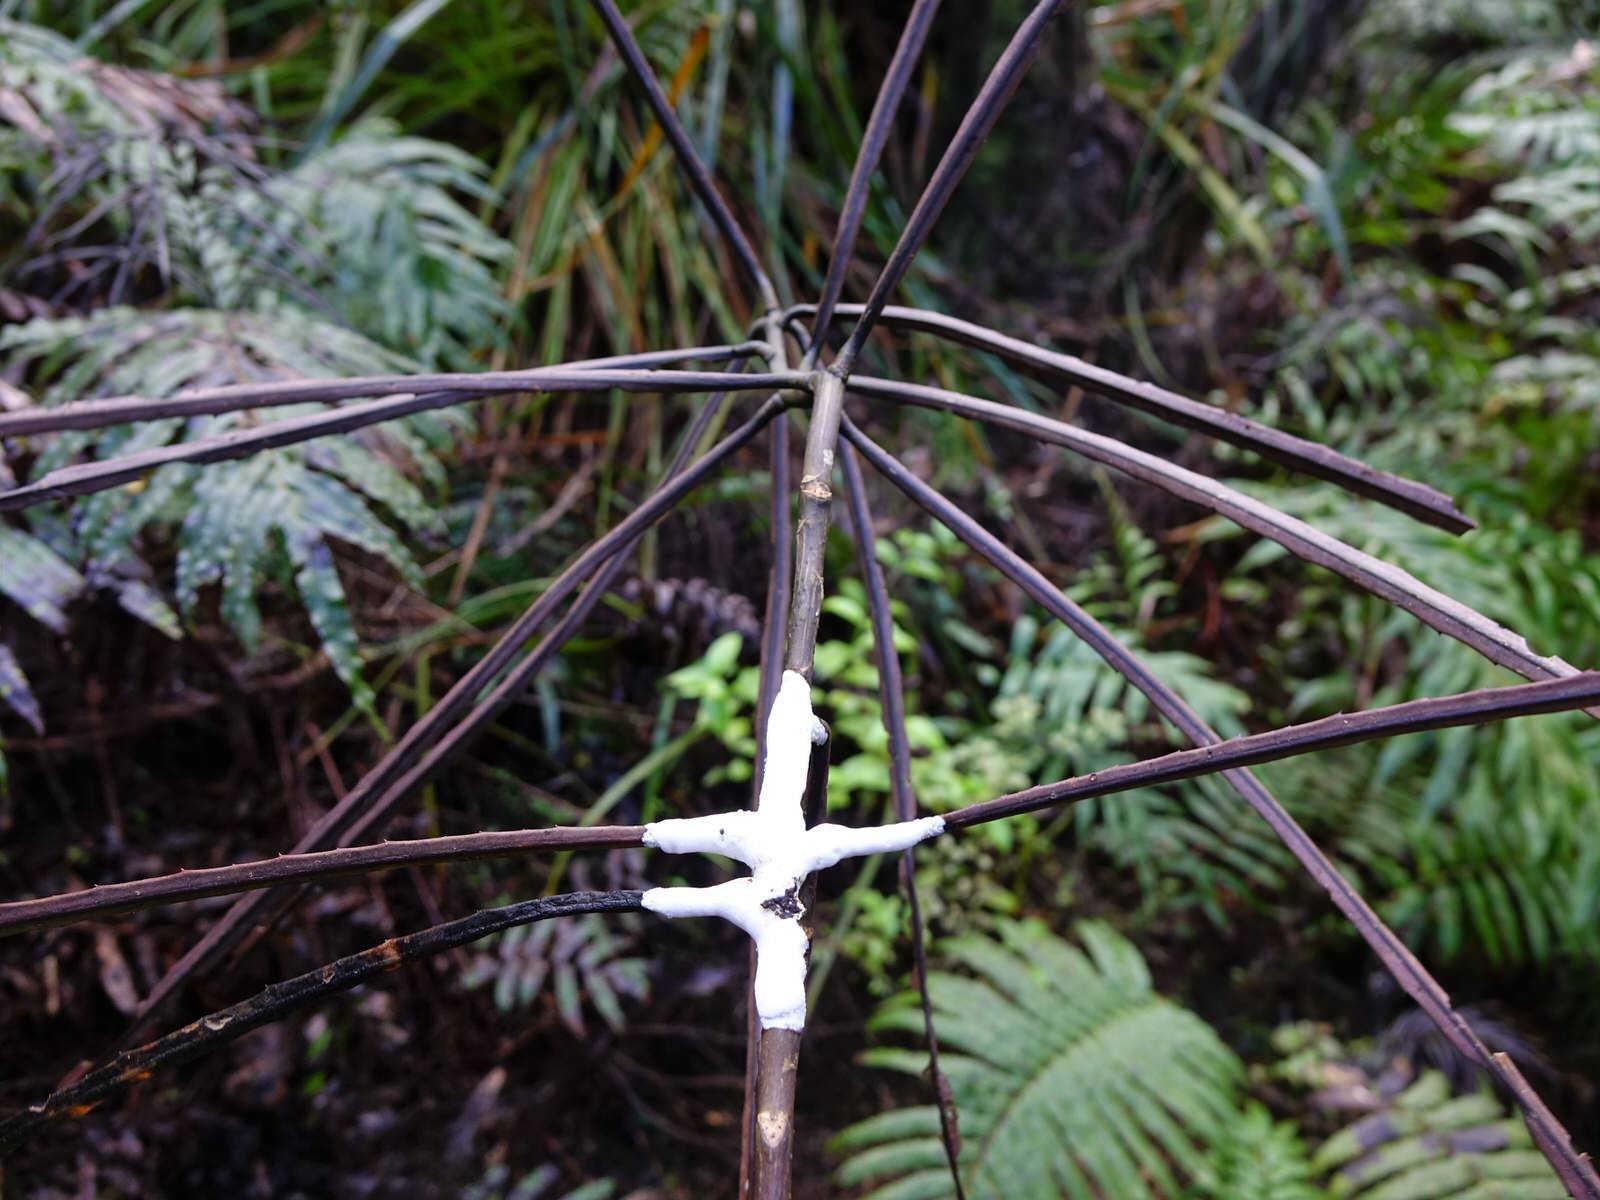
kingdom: Fungi
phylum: Basidiomycota
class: Pucciniomycetes
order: Septobasidiales
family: Septobasidiaceae
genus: Septobasidium
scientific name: Septobasidium simmondsii
